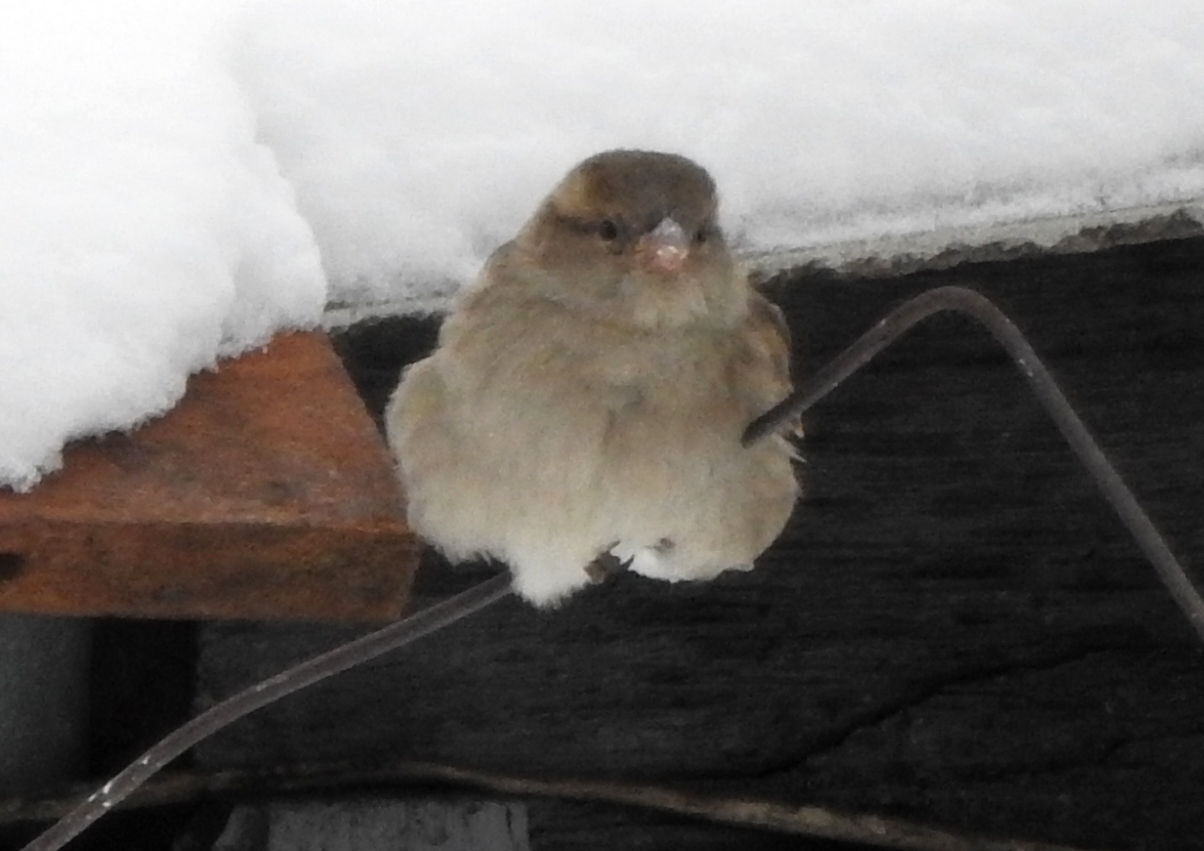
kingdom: Animalia
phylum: Chordata
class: Aves
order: Passeriformes
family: Passeridae
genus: Passer
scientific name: Passer domesticus
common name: House sparrow
